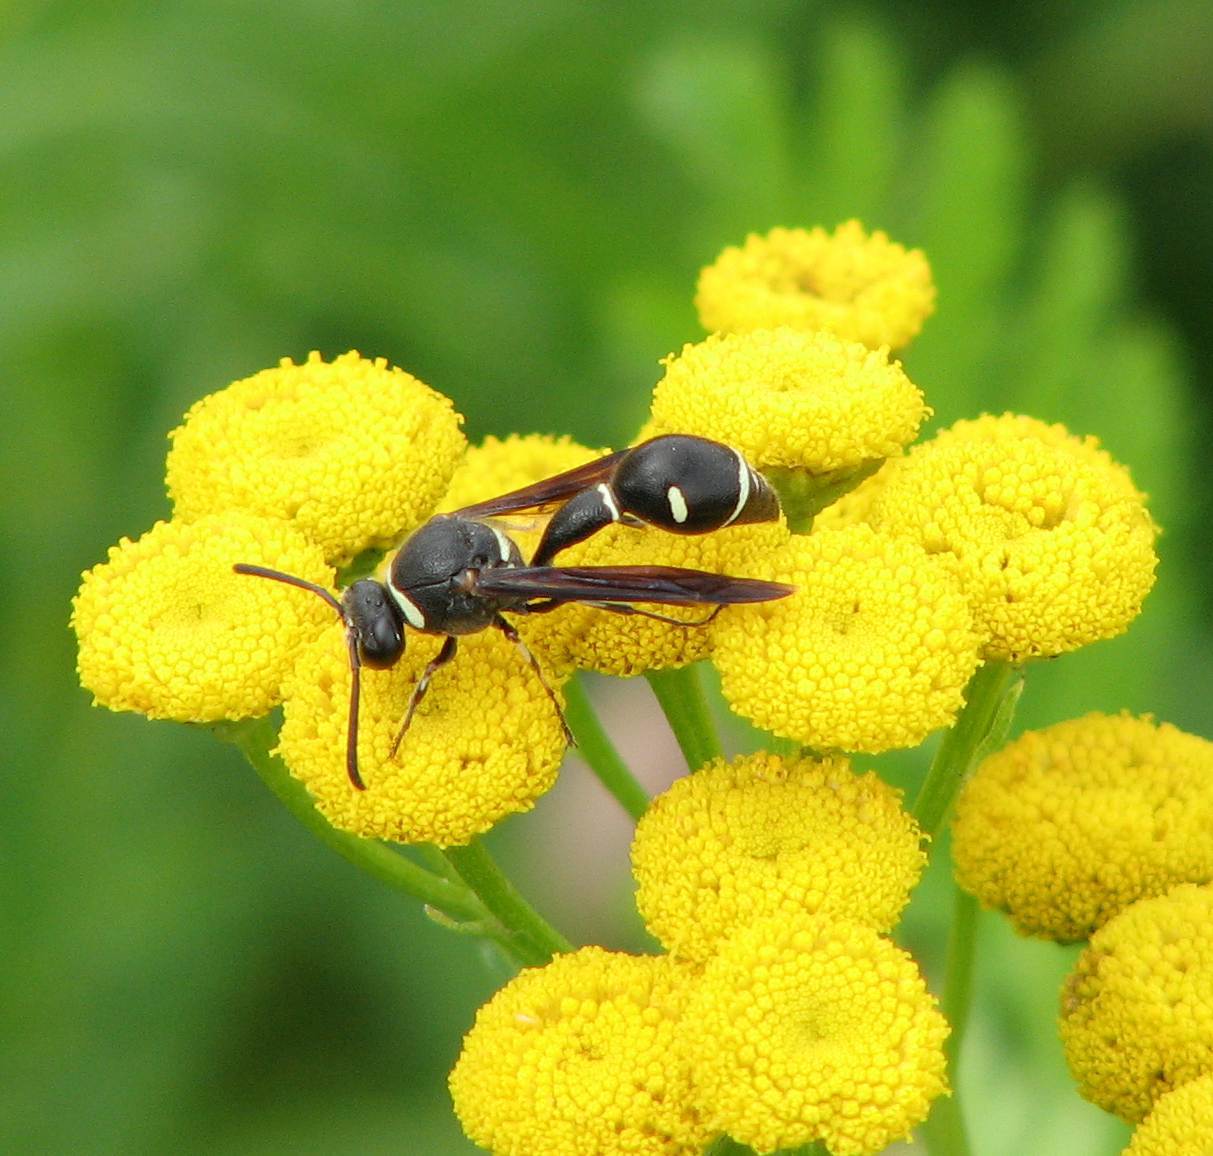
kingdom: Animalia
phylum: Arthropoda
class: Insecta
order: Hymenoptera
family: Vespidae
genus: Eumenes
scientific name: Eumenes fraternus
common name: Fraternal potter wasp
